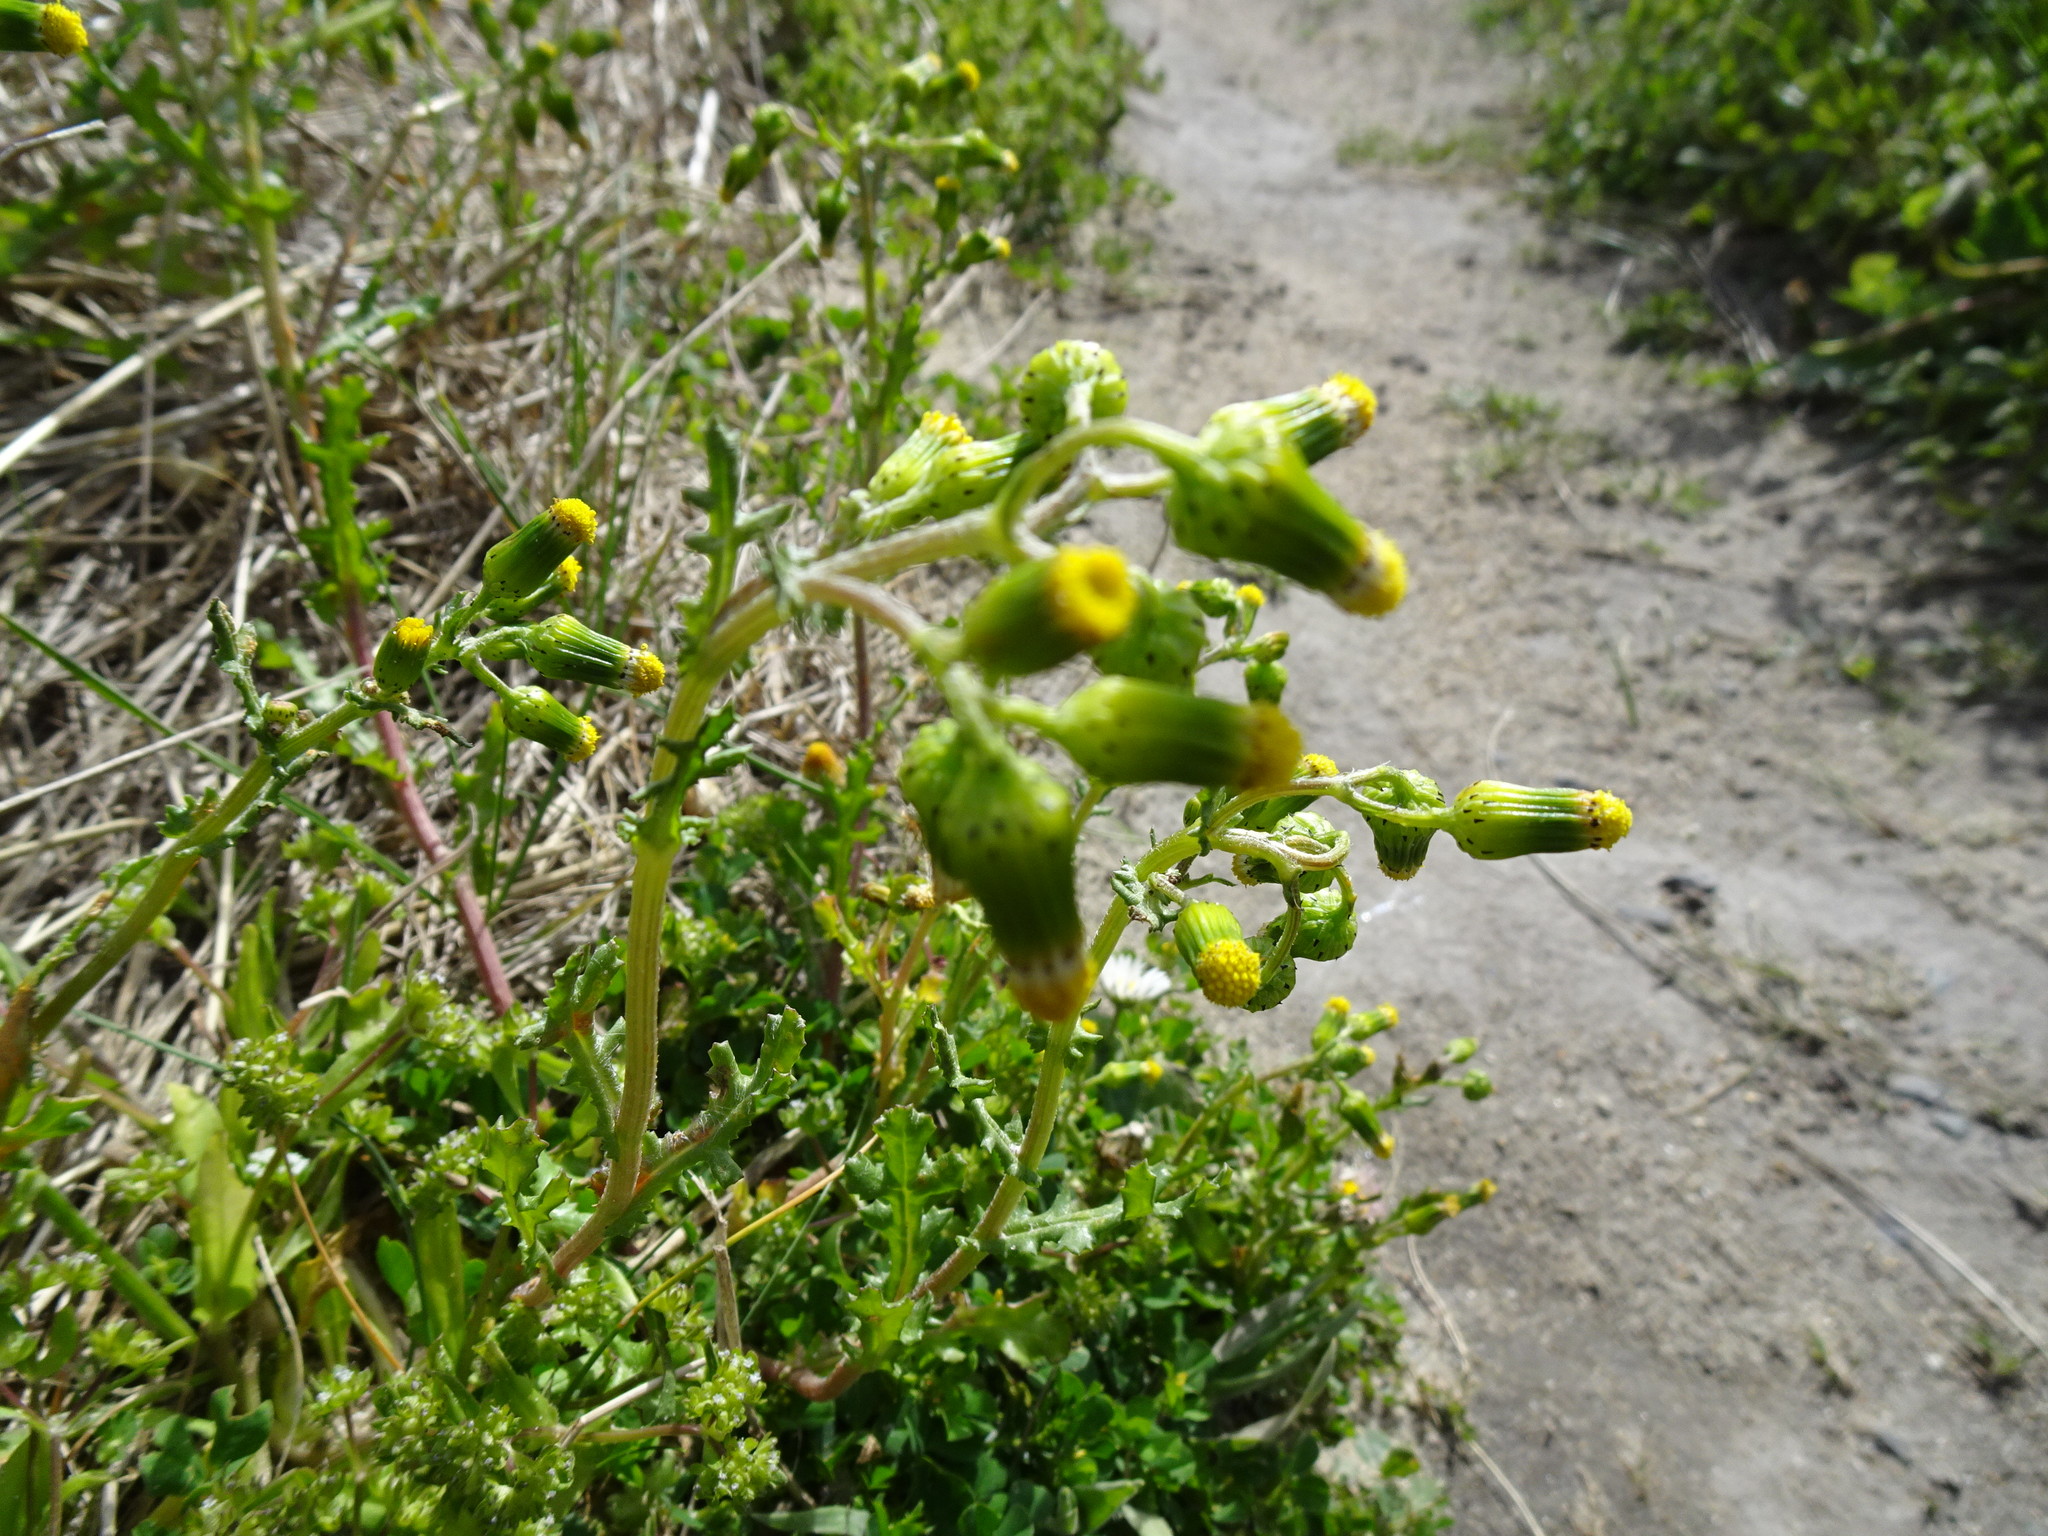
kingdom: Plantae
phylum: Tracheophyta
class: Magnoliopsida
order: Asterales
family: Asteraceae
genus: Senecio
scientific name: Senecio vulgaris
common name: Old-man-in-the-spring
